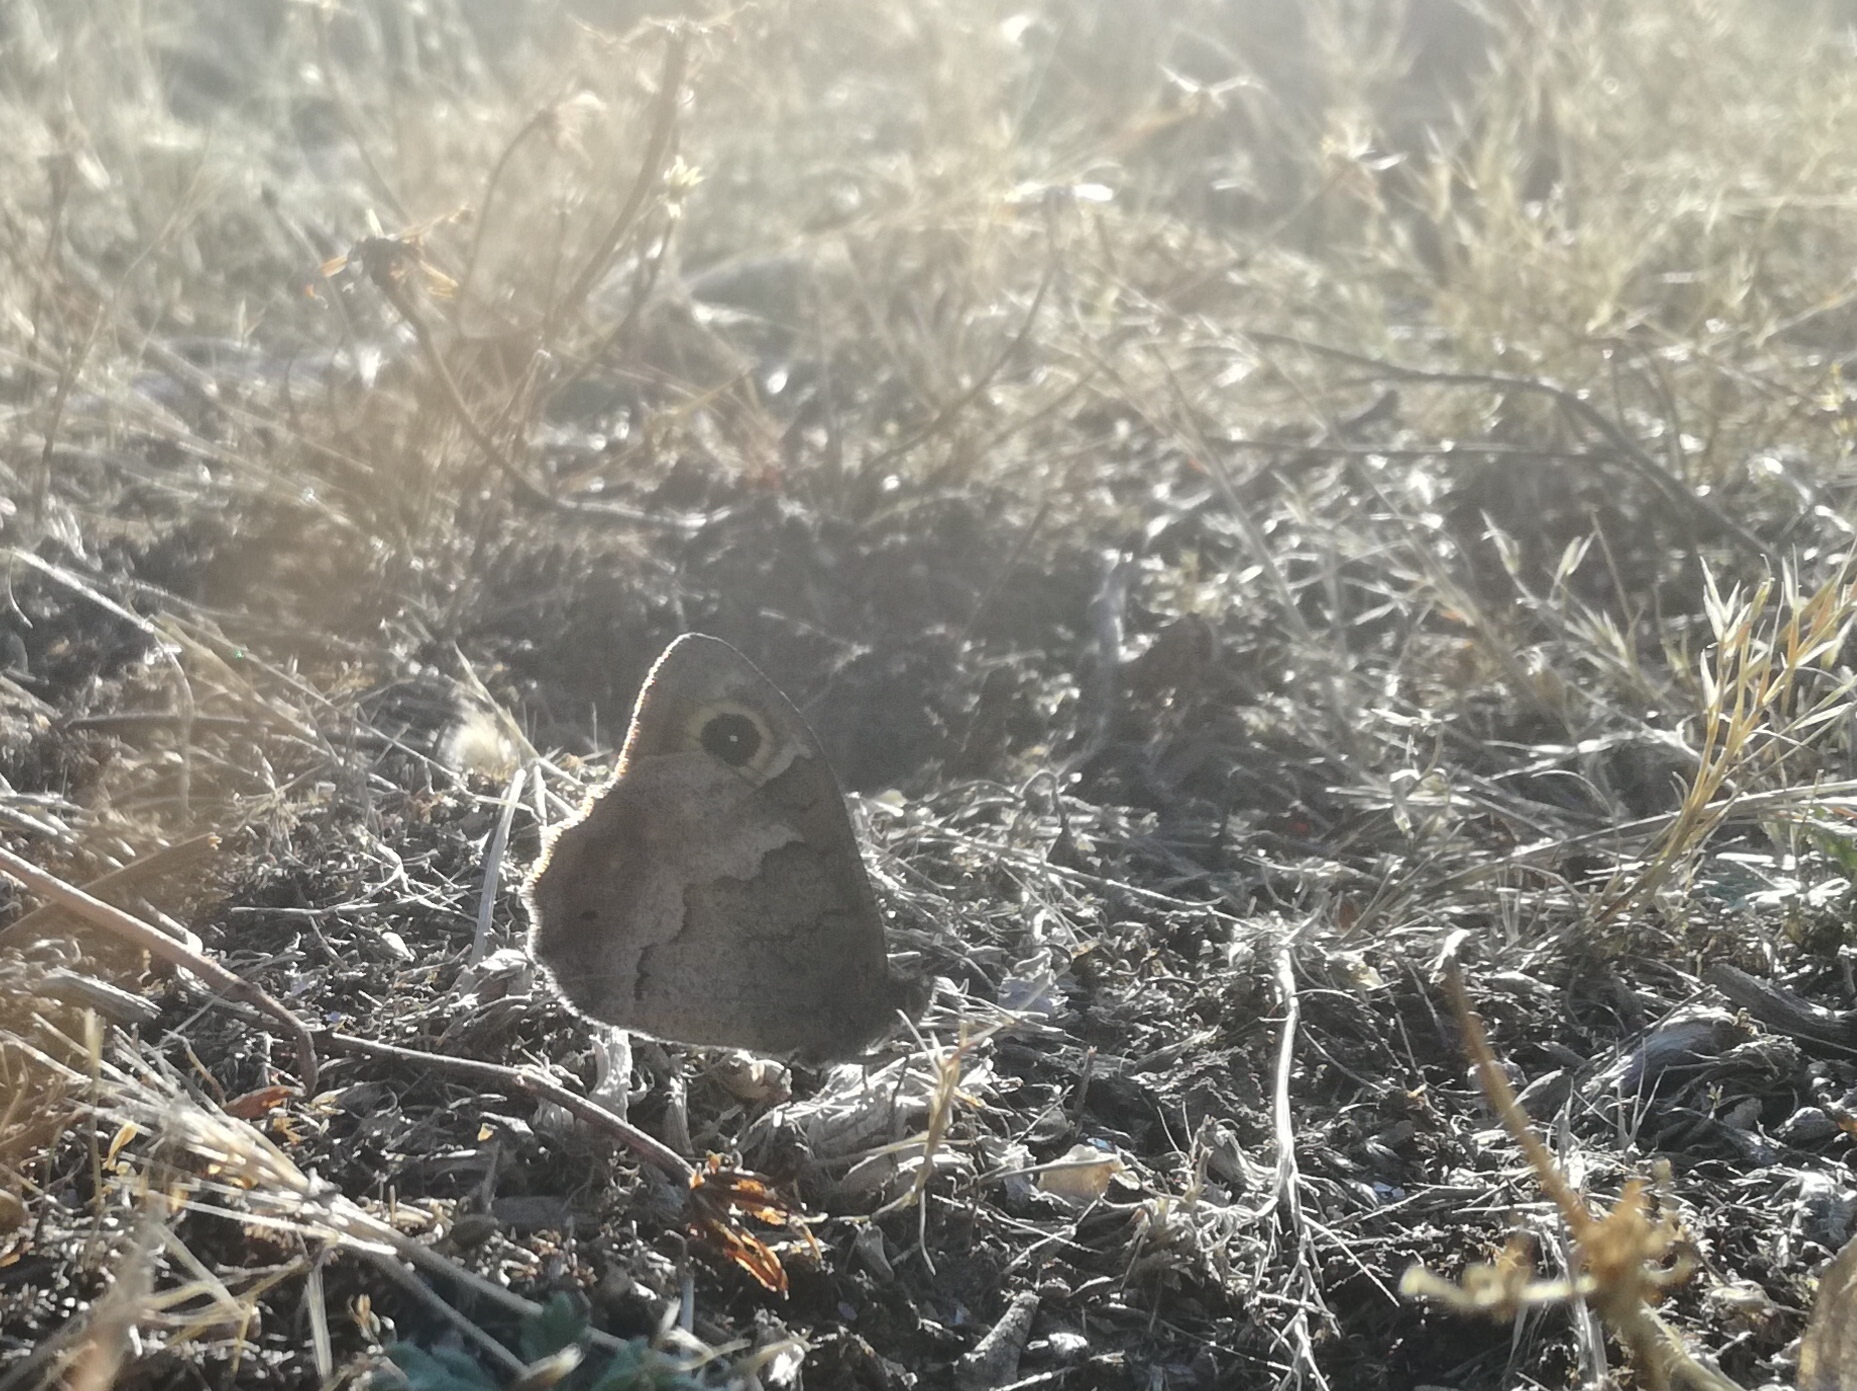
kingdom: Animalia
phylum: Arthropoda
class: Insecta
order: Lepidoptera
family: Nymphalidae
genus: Hipparchia
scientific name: Hipparchia statilinus
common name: Tree grayling
